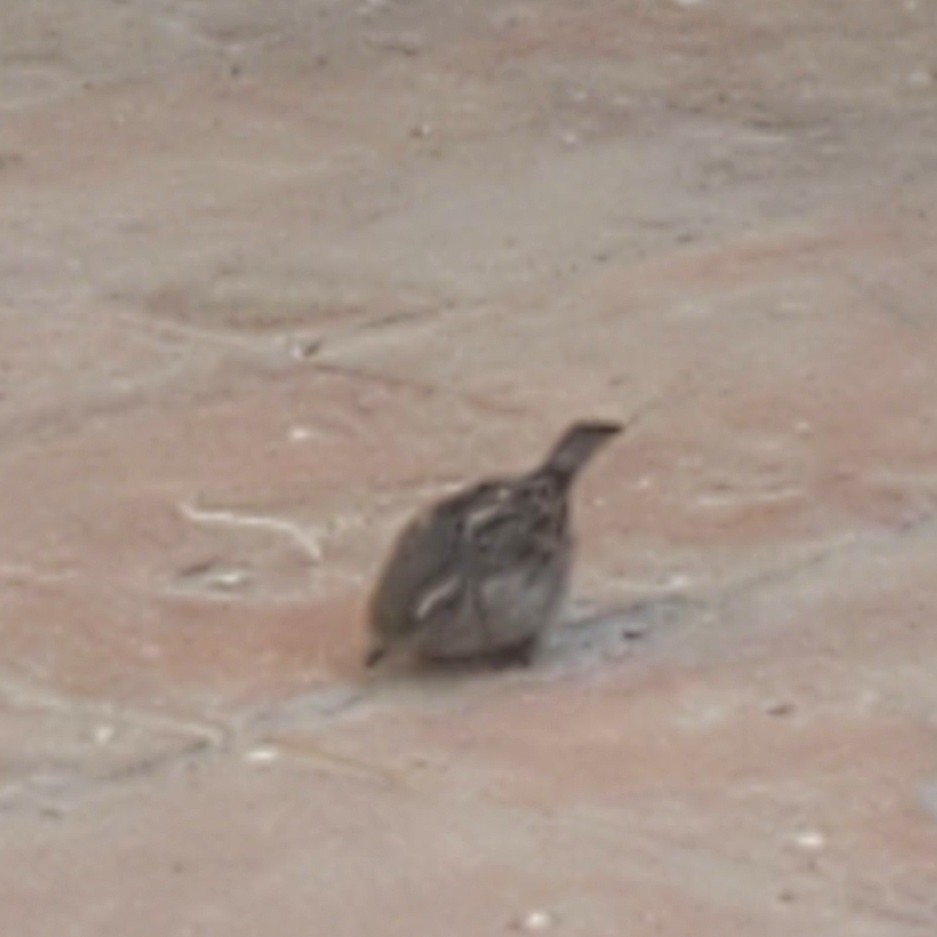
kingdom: Animalia
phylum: Chordata
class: Aves
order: Passeriformes
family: Passeridae
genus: Passer
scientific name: Passer domesticus
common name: House sparrow
